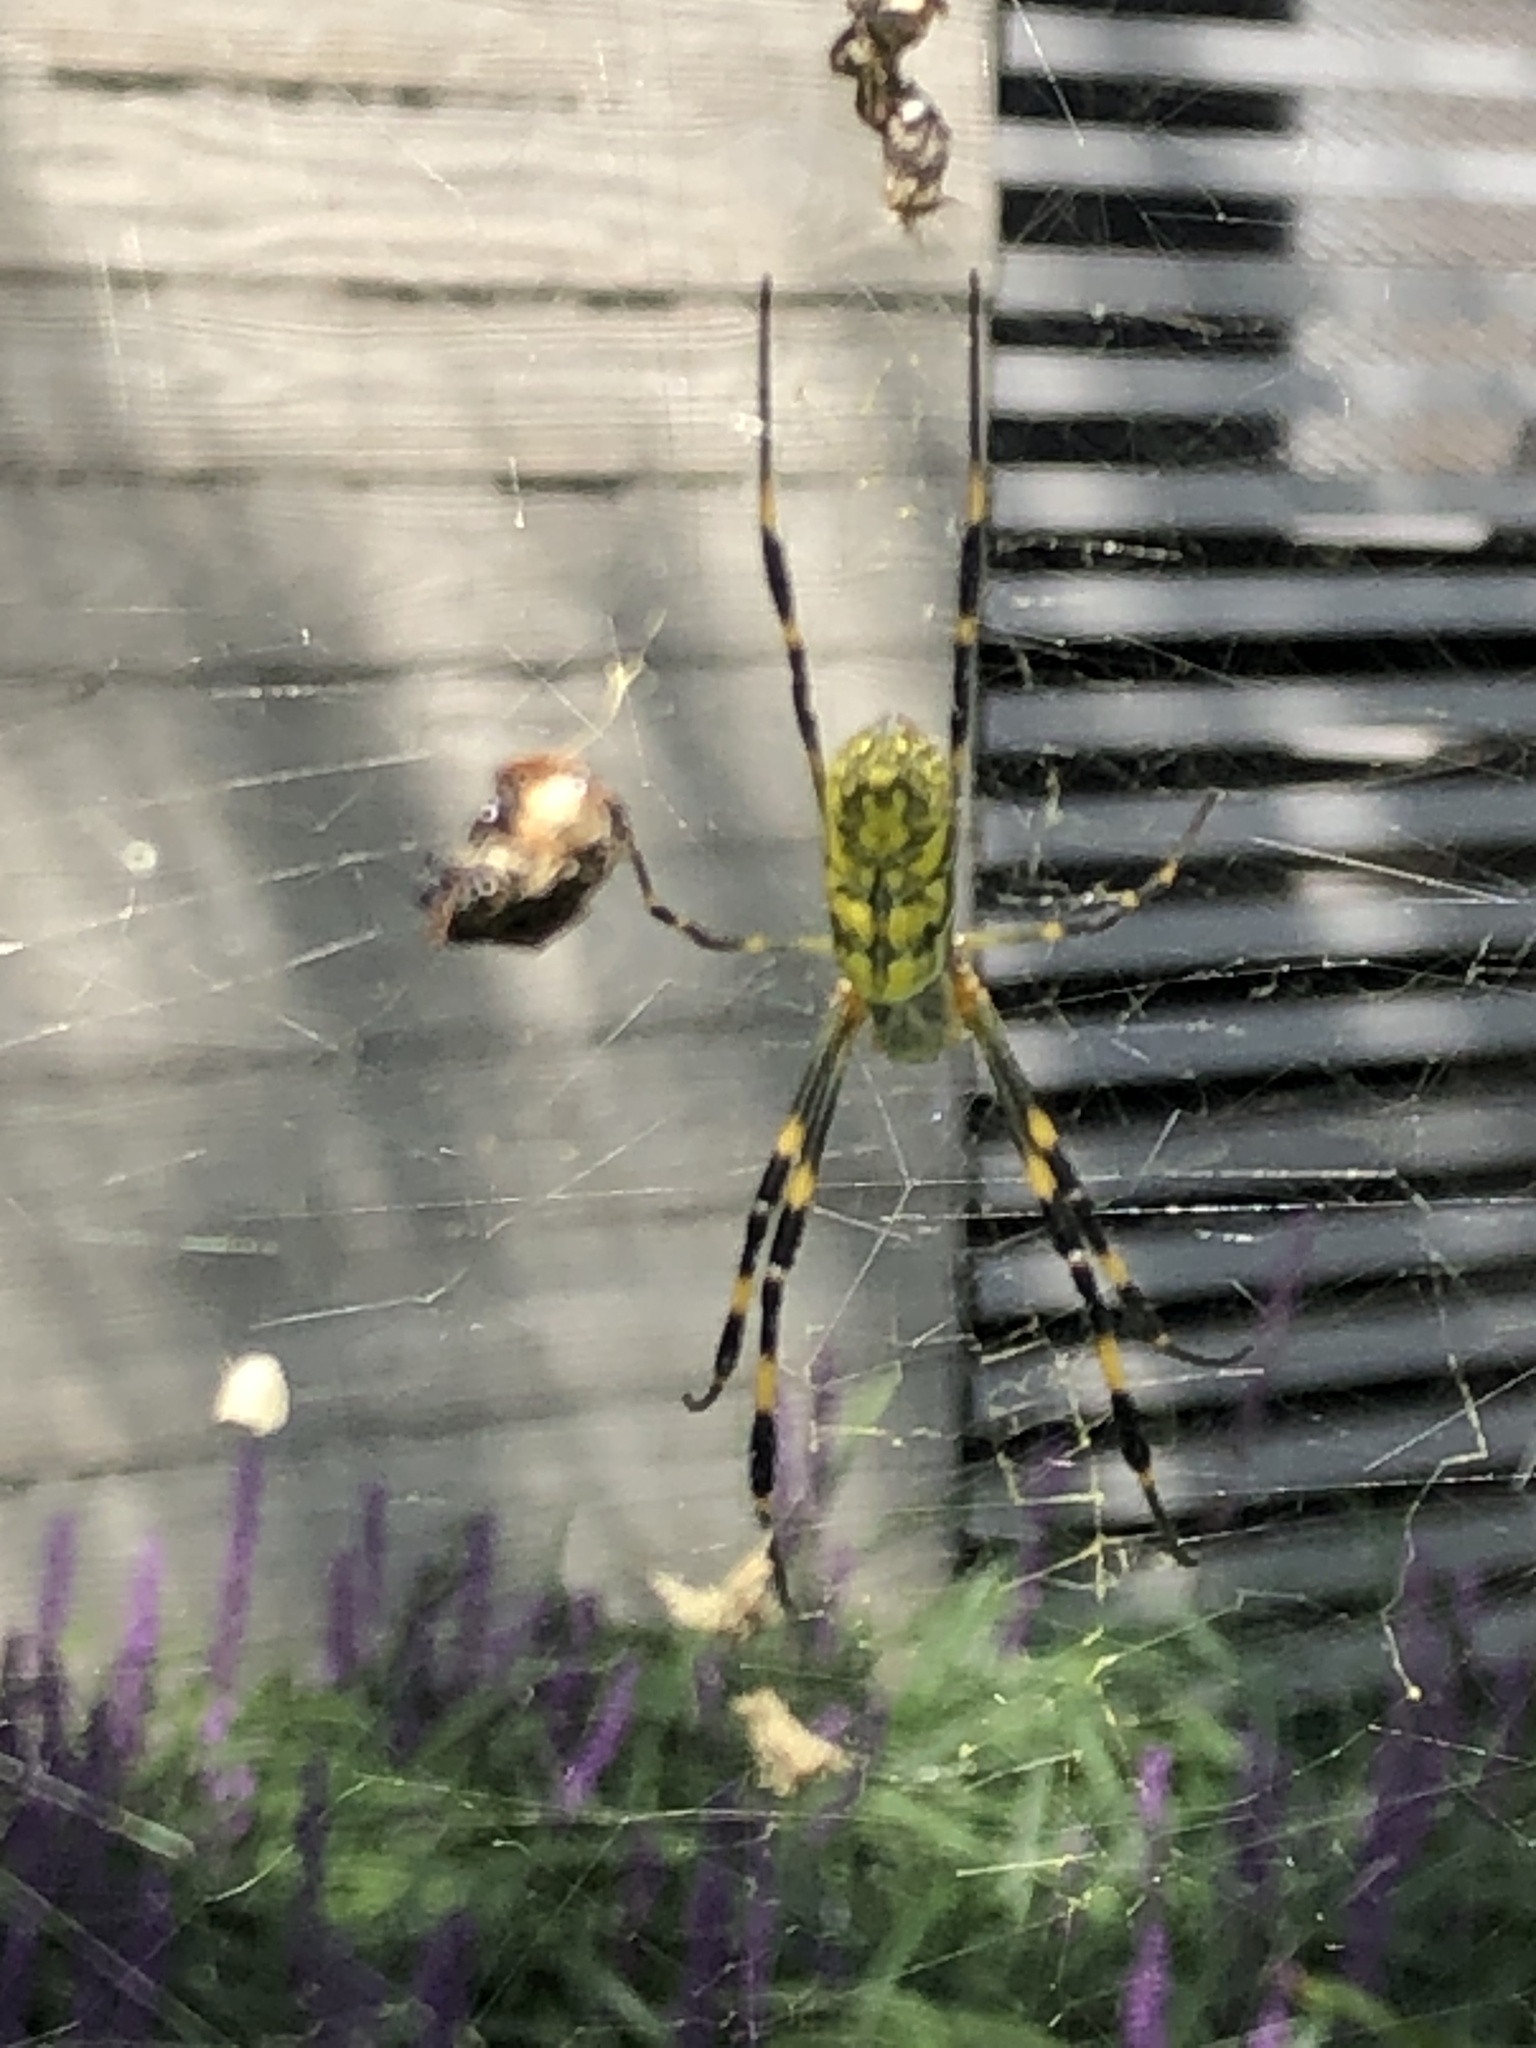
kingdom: Animalia
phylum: Arthropoda
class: Arachnida
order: Araneae
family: Araneidae
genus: Trichonephila
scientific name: Trichonephila clavata
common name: Jorō spider
